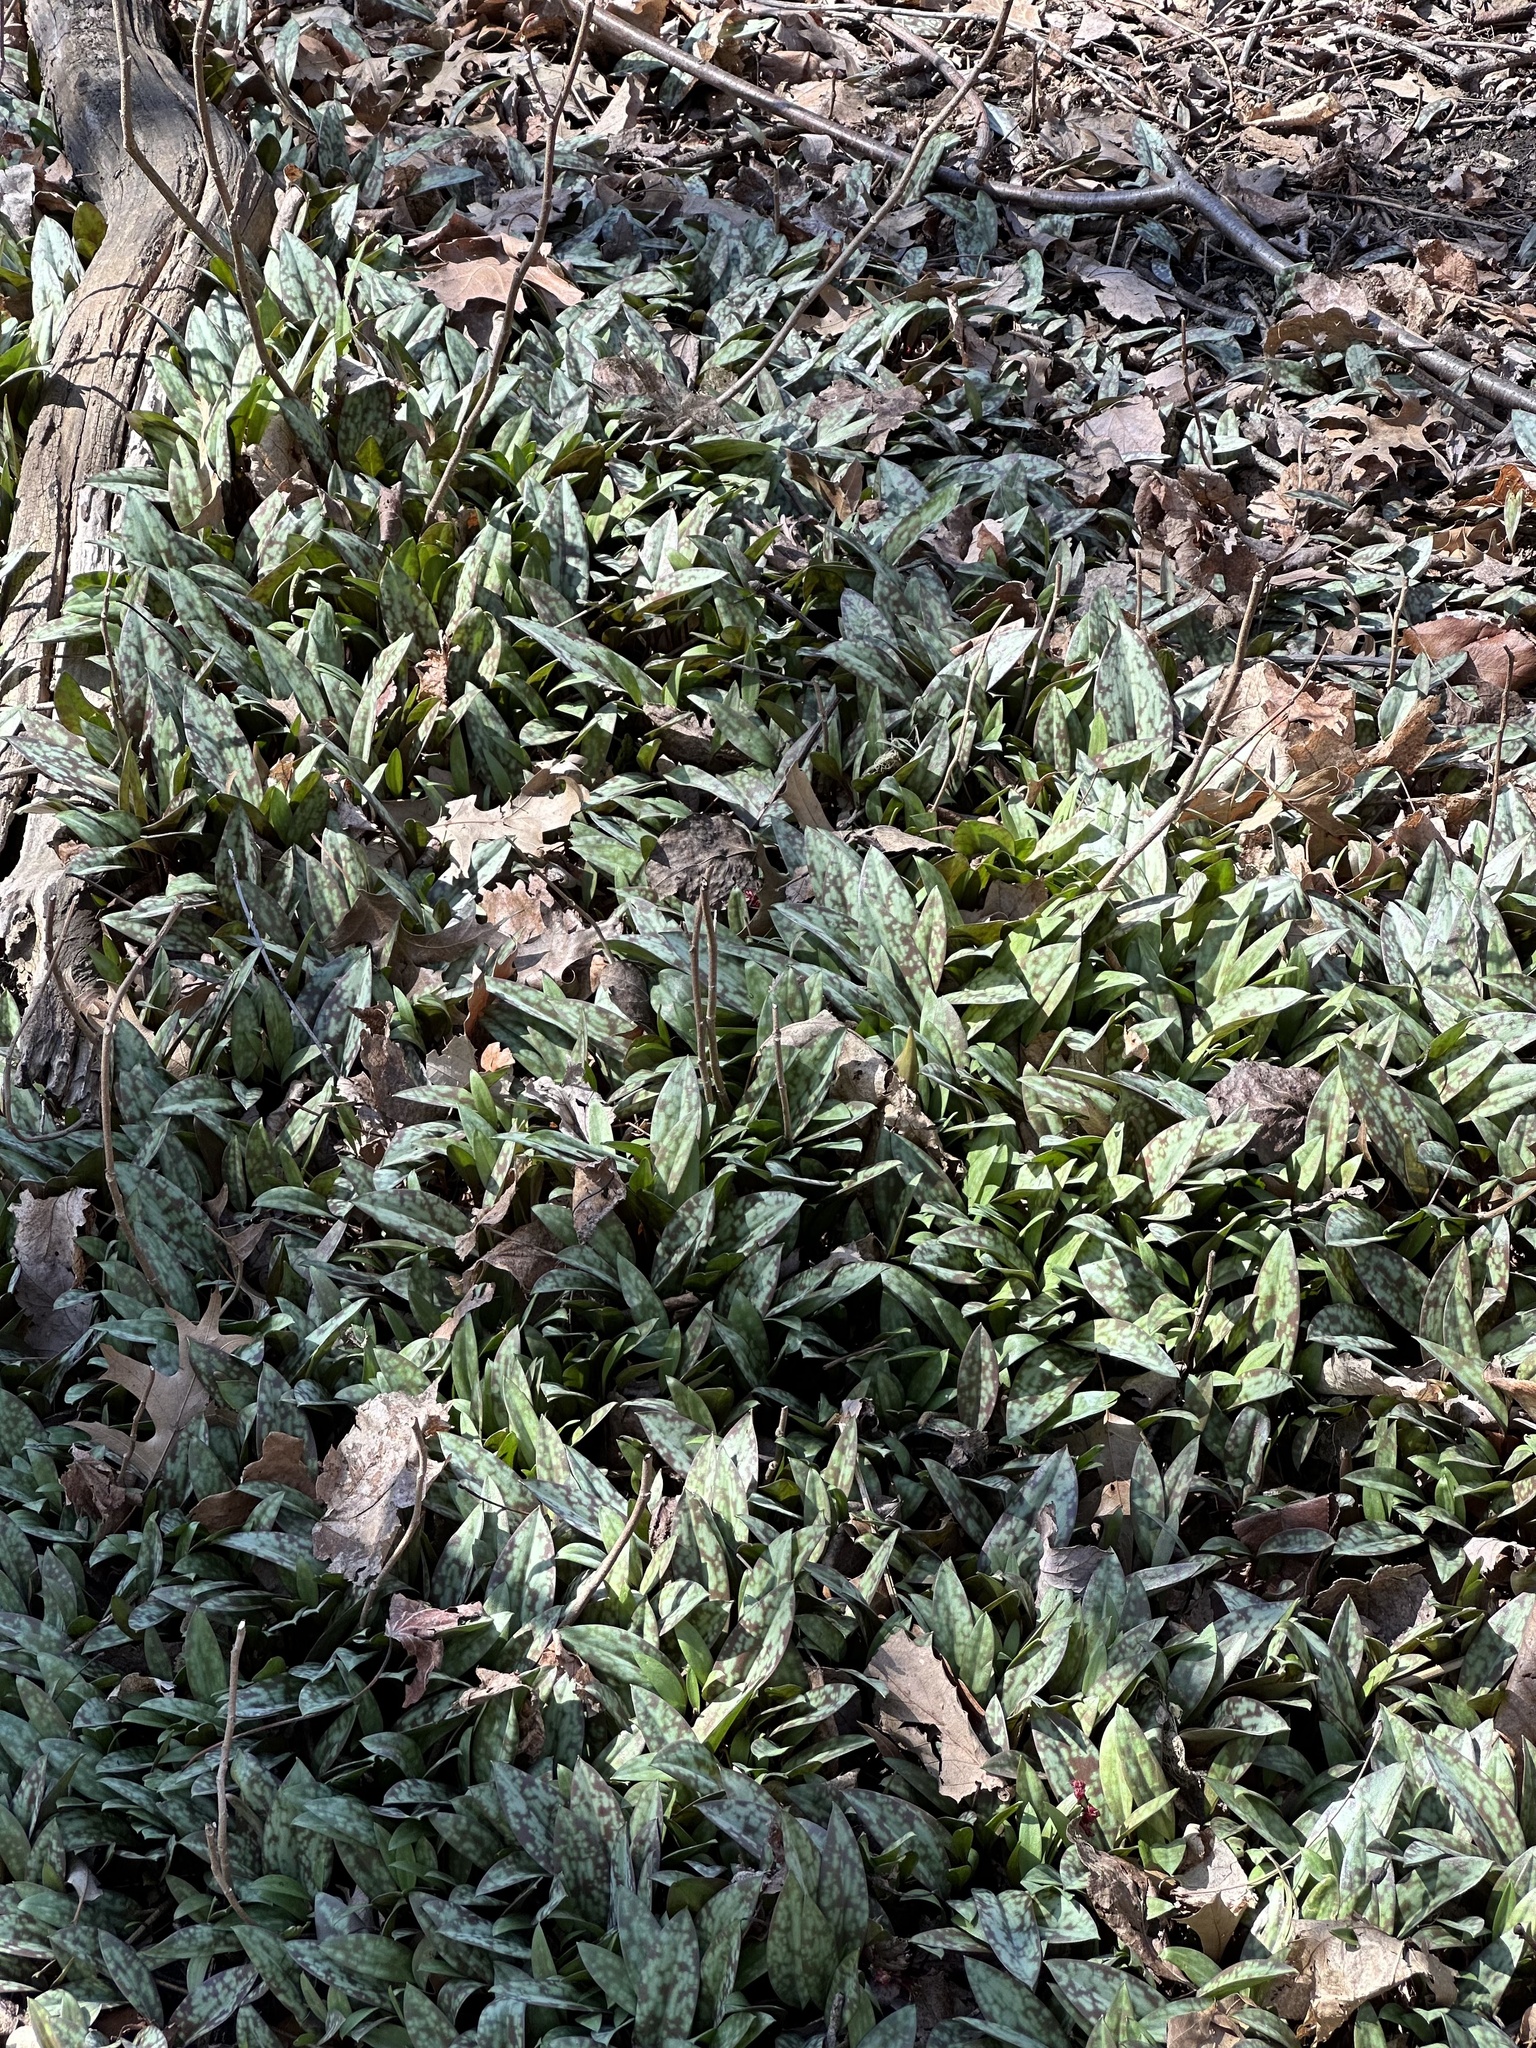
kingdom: Plantae
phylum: Tracheophyta
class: Liliopsida
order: Liliales
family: Liliaceae
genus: Erythronium
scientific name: Erythronium americanum
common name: Yellow adder's-tongue
